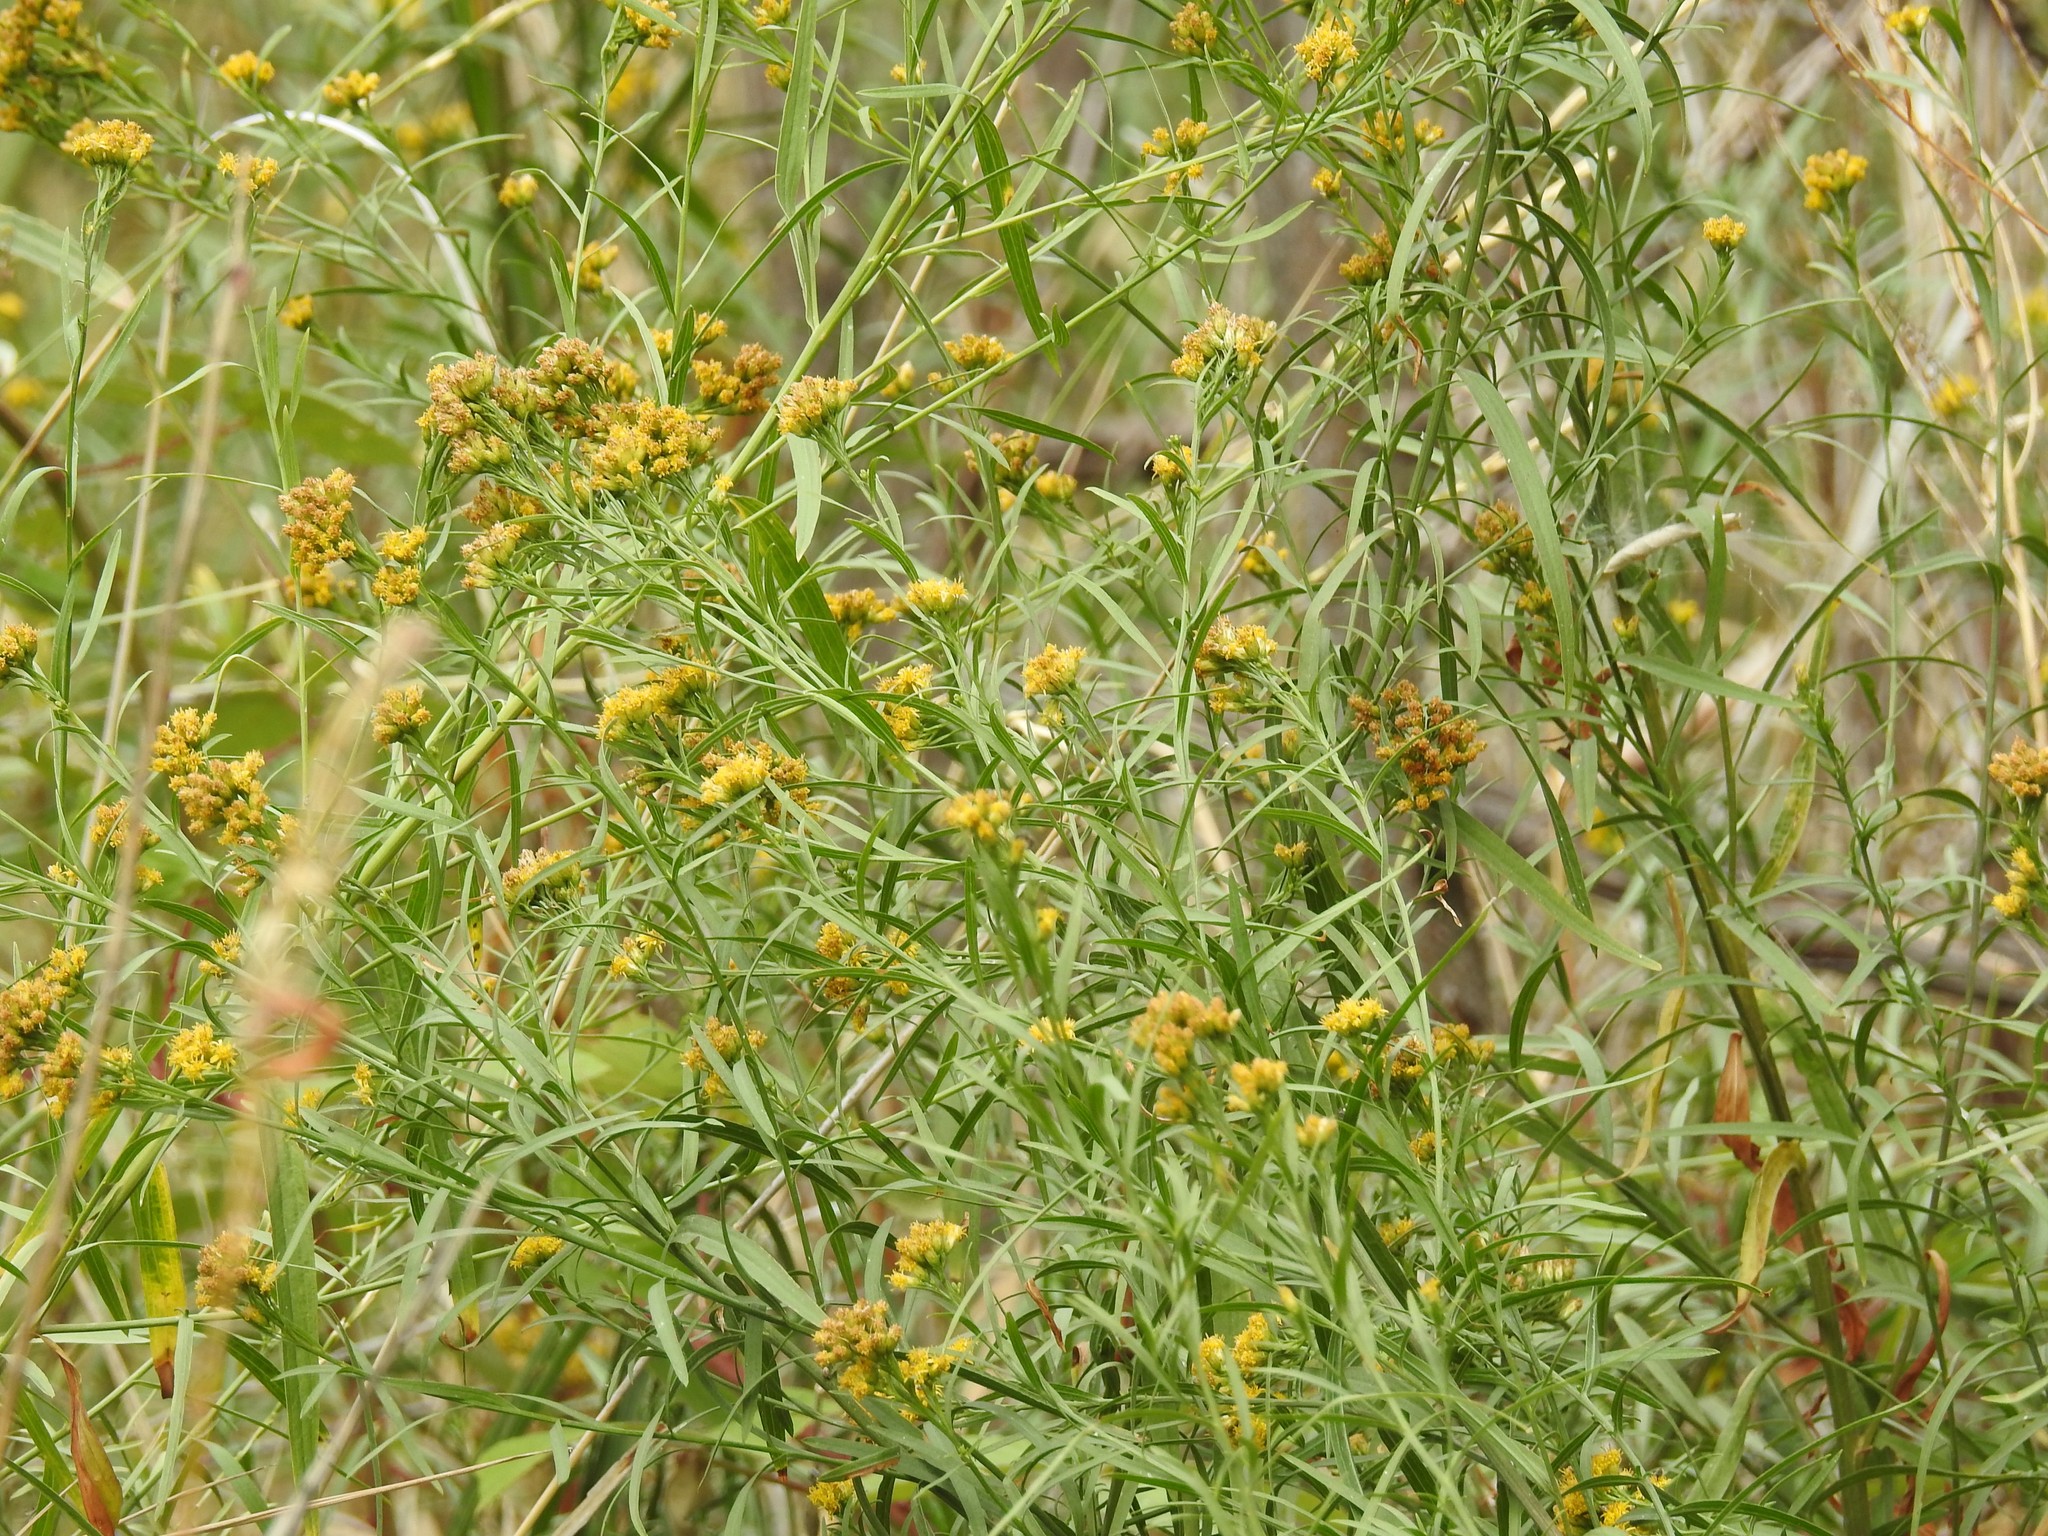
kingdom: Plantae
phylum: Tracheophyta
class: Magnoliopsida
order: Asterales
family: Asteraceae
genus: Euthamia
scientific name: Euthamia occidentalis
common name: Western goldentop
